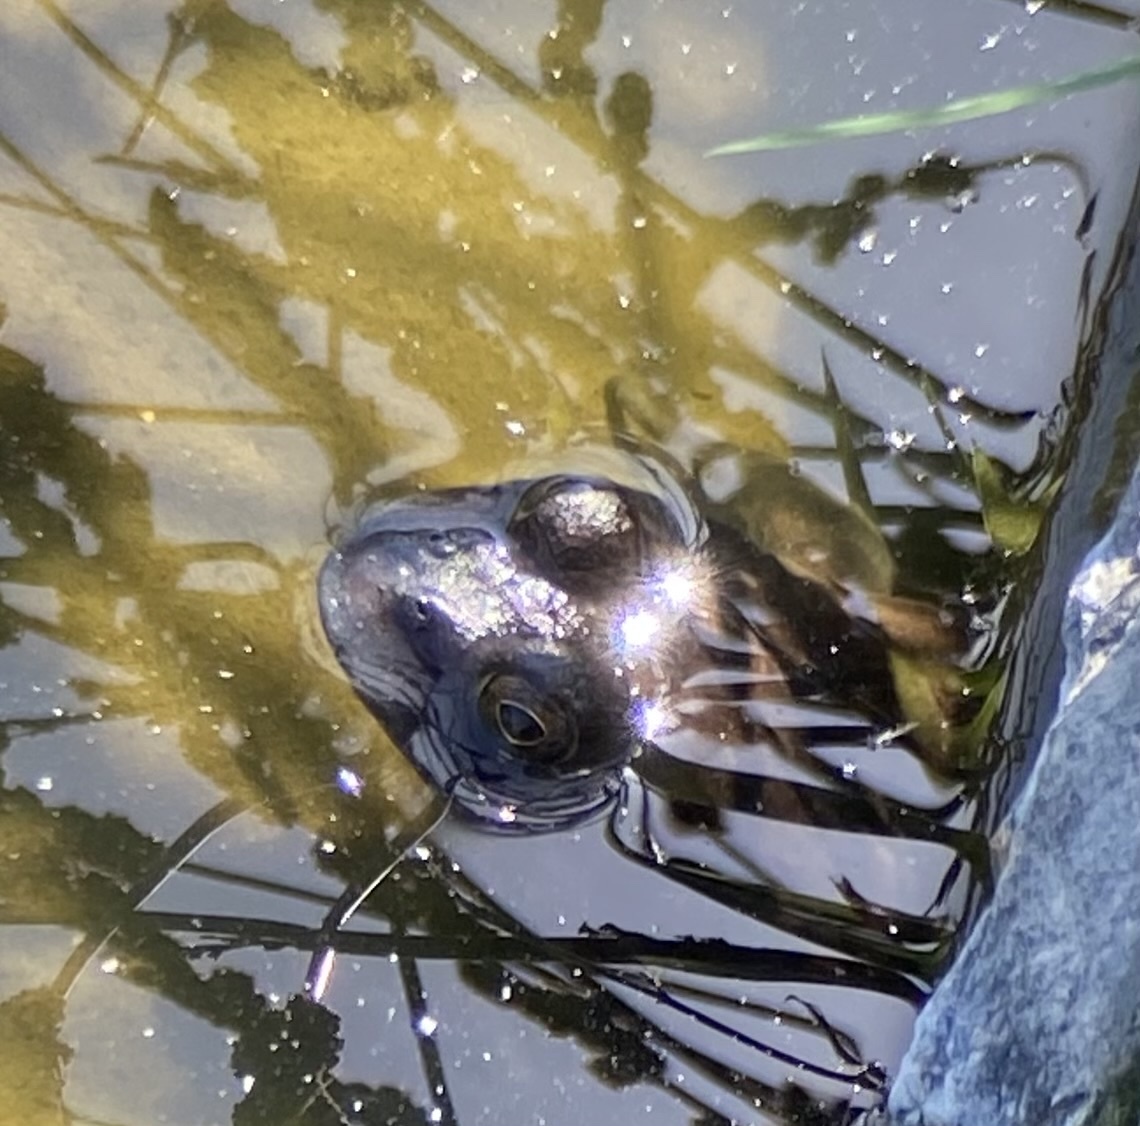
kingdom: Animalia
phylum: Chordata
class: Amphibia
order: Anura
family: Ranidae
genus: Lithobates
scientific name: Lithobates catesbeianus
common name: American bullfrog
